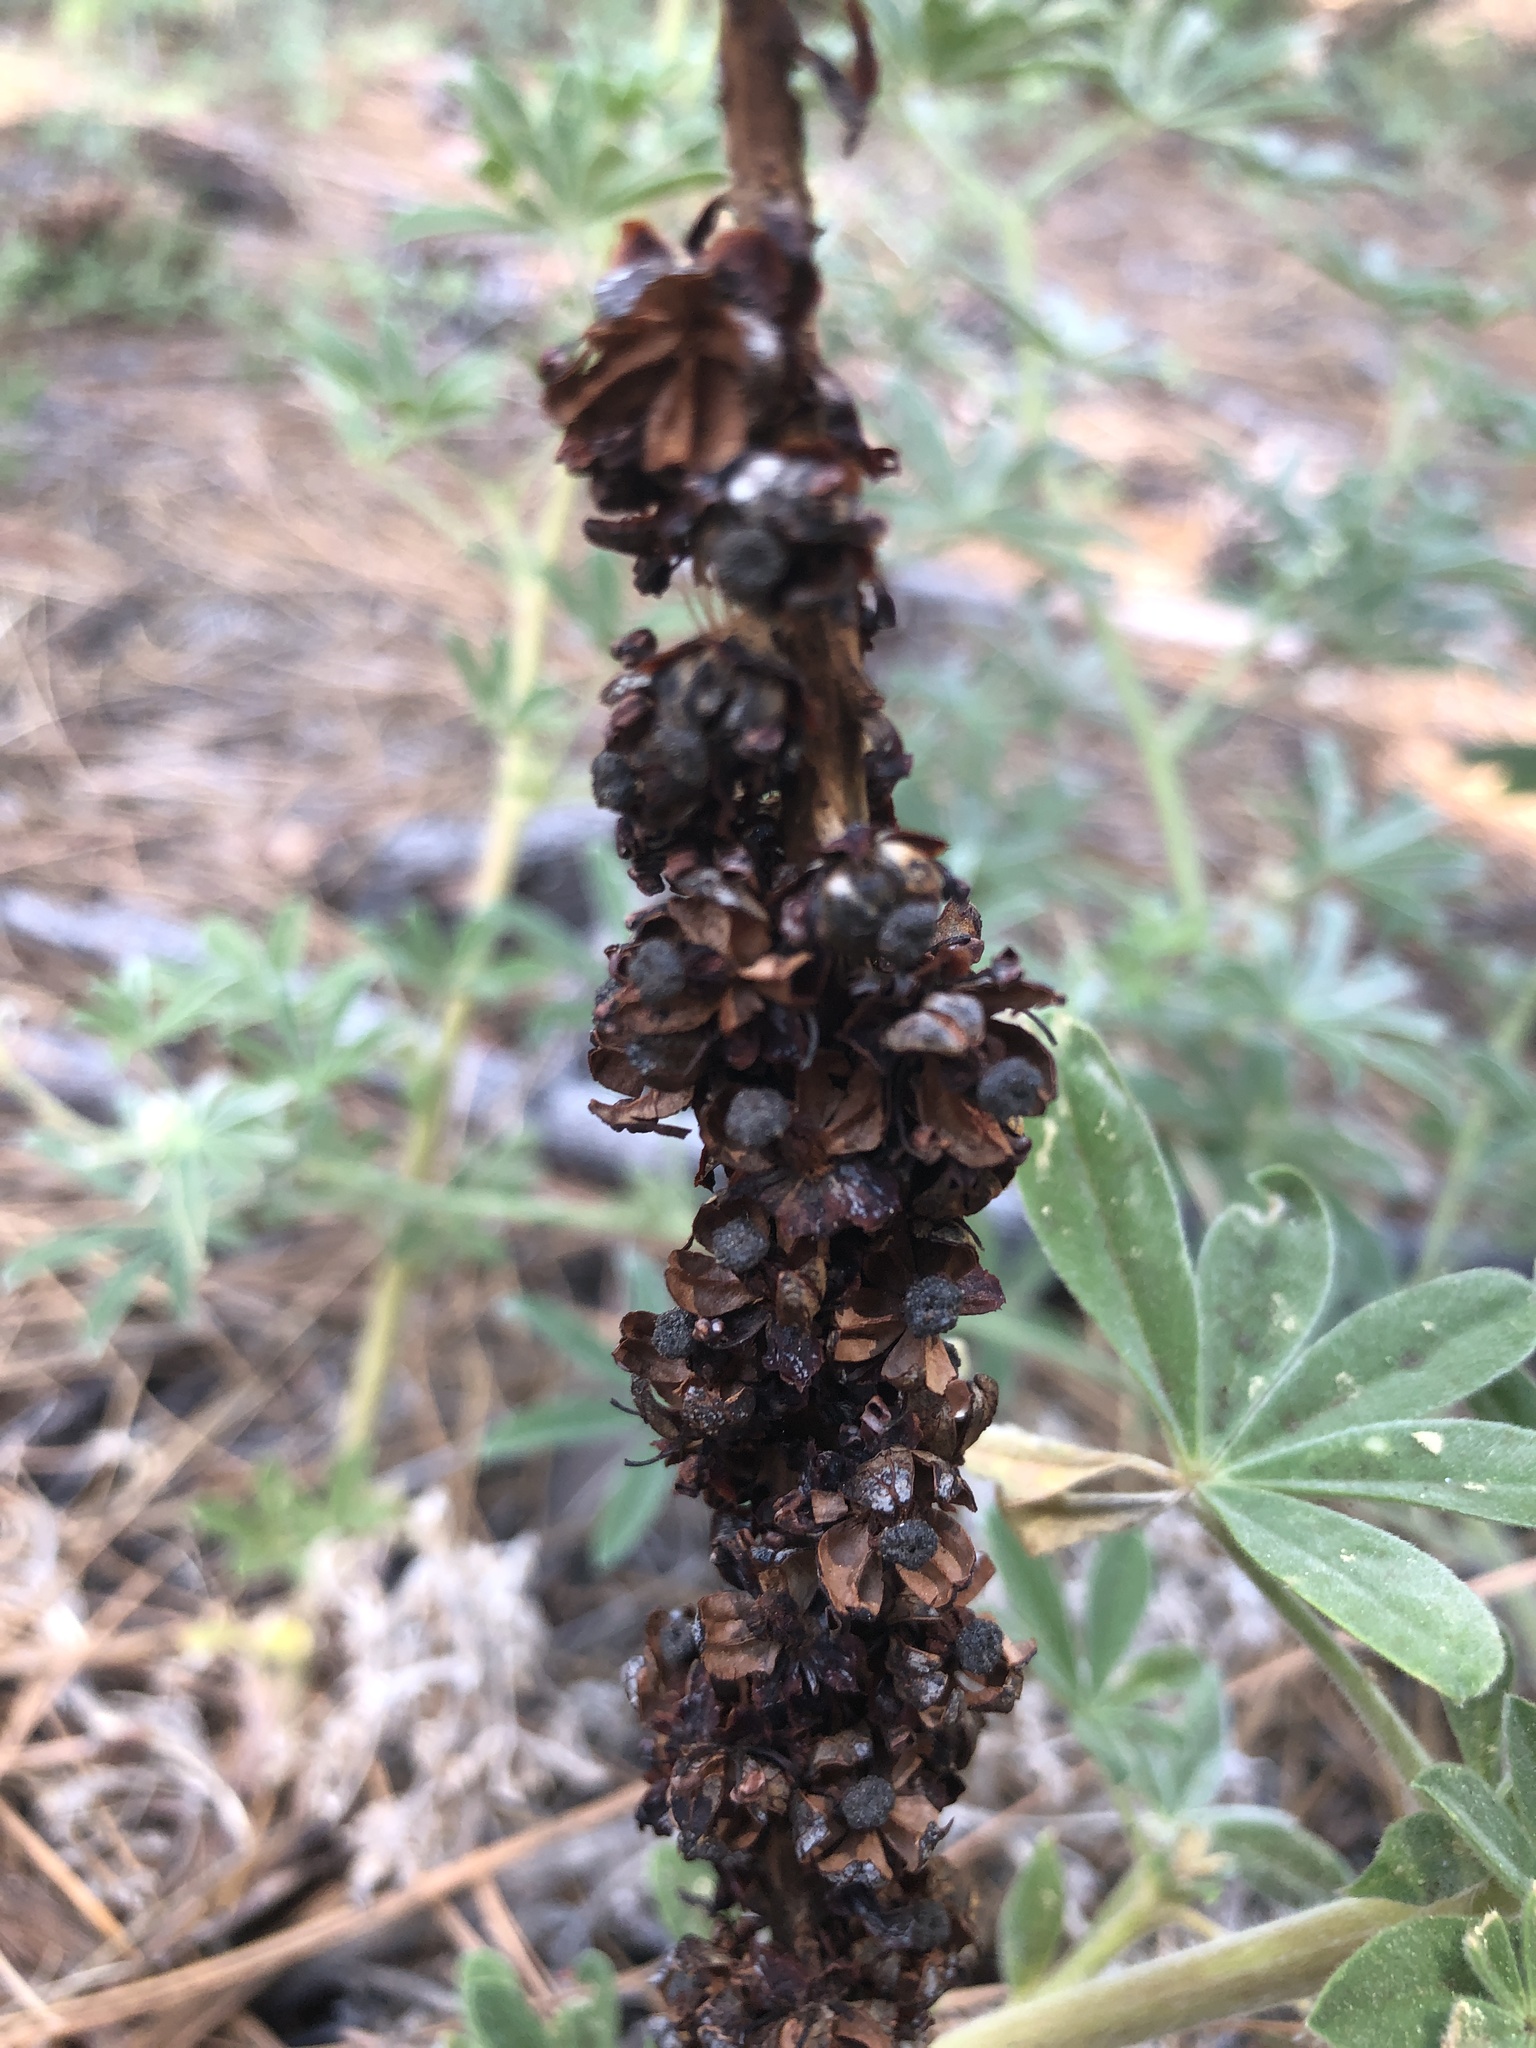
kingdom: Plantae
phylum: Tracheophyta
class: Magnoliopsida
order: Ericales
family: Ericaceae
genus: Allotropa
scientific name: Allotropa virgata
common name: Candy-striped allotropa
